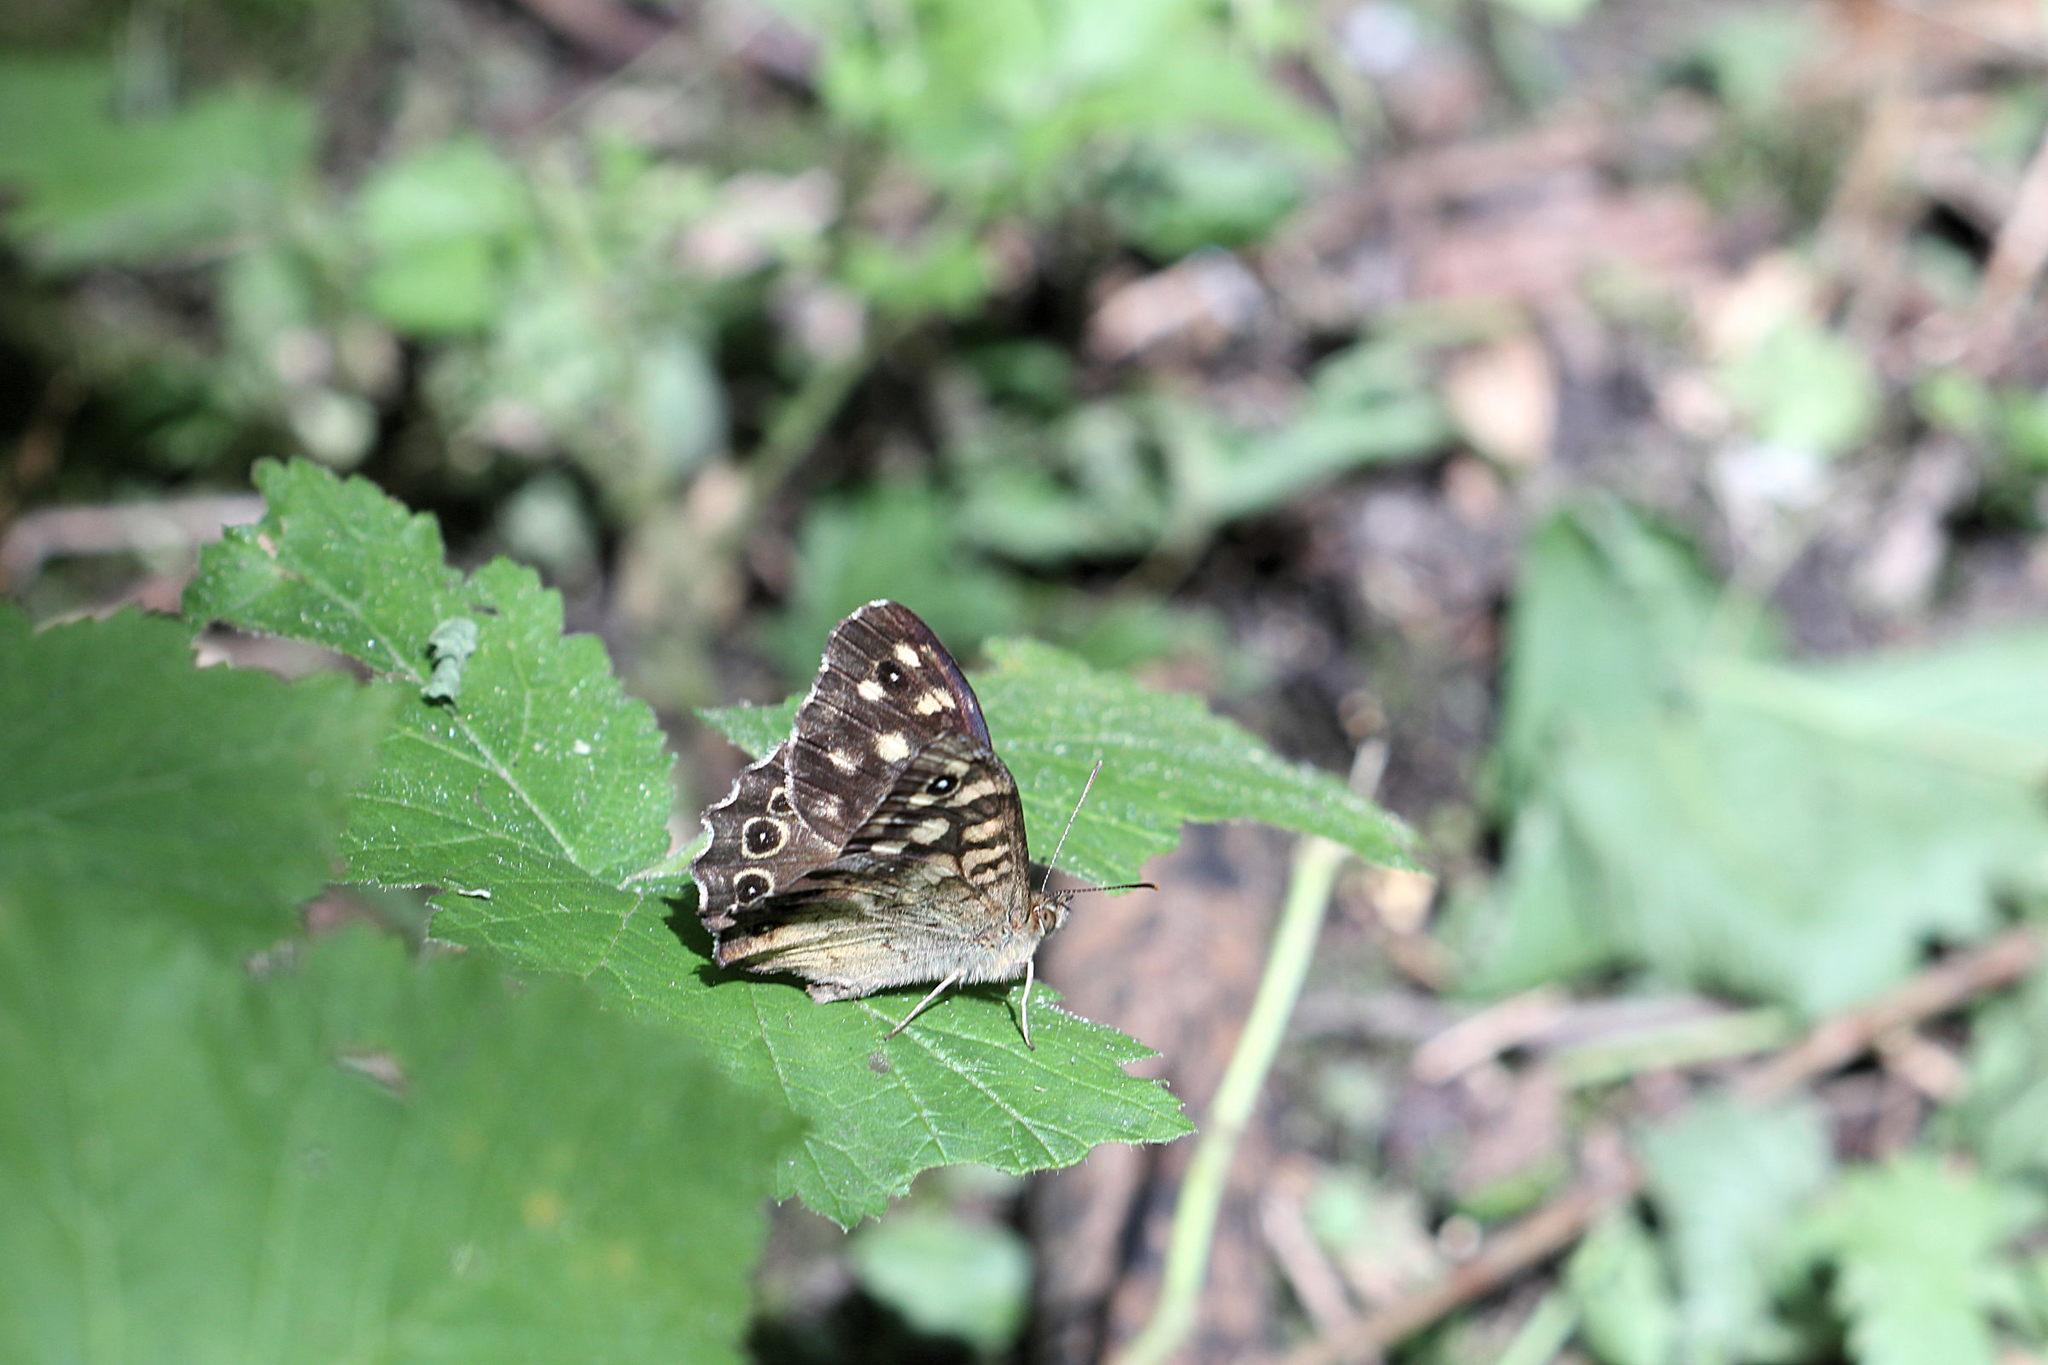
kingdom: Animalia
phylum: Arthropoda
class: Insecta
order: Lepidoptera
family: Nymphalidae
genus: Pararge
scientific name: Pararge aegeria
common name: Speckled wood
